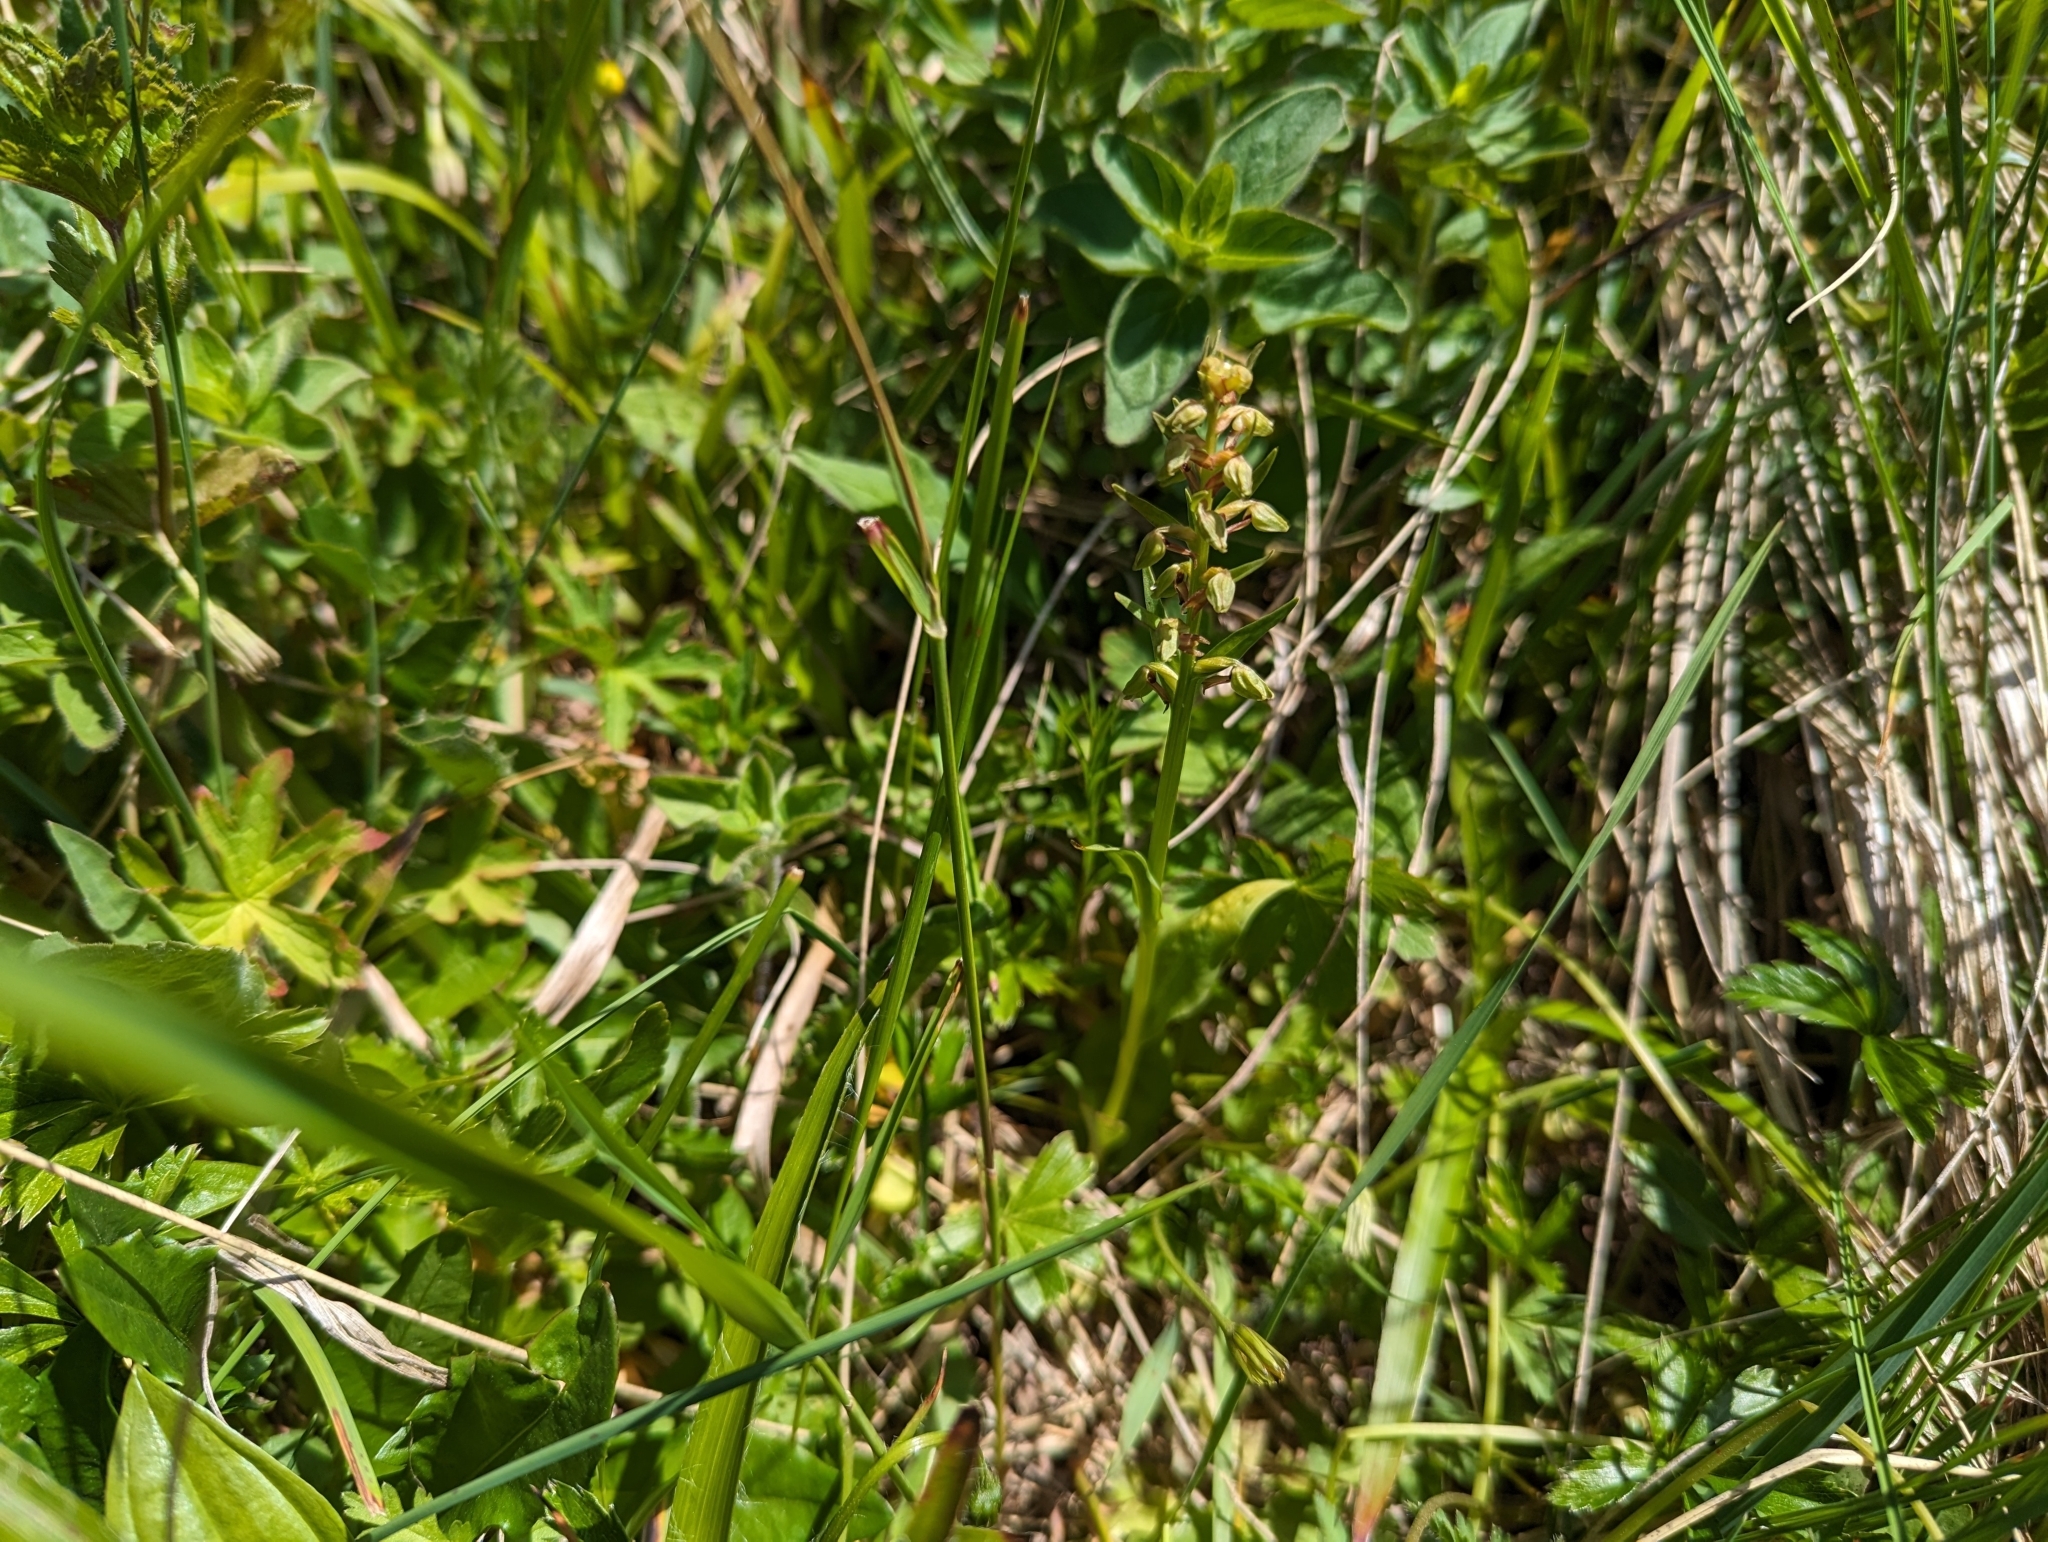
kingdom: Plantae
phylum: Tracheophyta
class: Liliopsida
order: Asparagales
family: Orchidaceae
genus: Dactylorhiza
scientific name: Dactylorhiza viridis
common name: Longbract frog orchid
